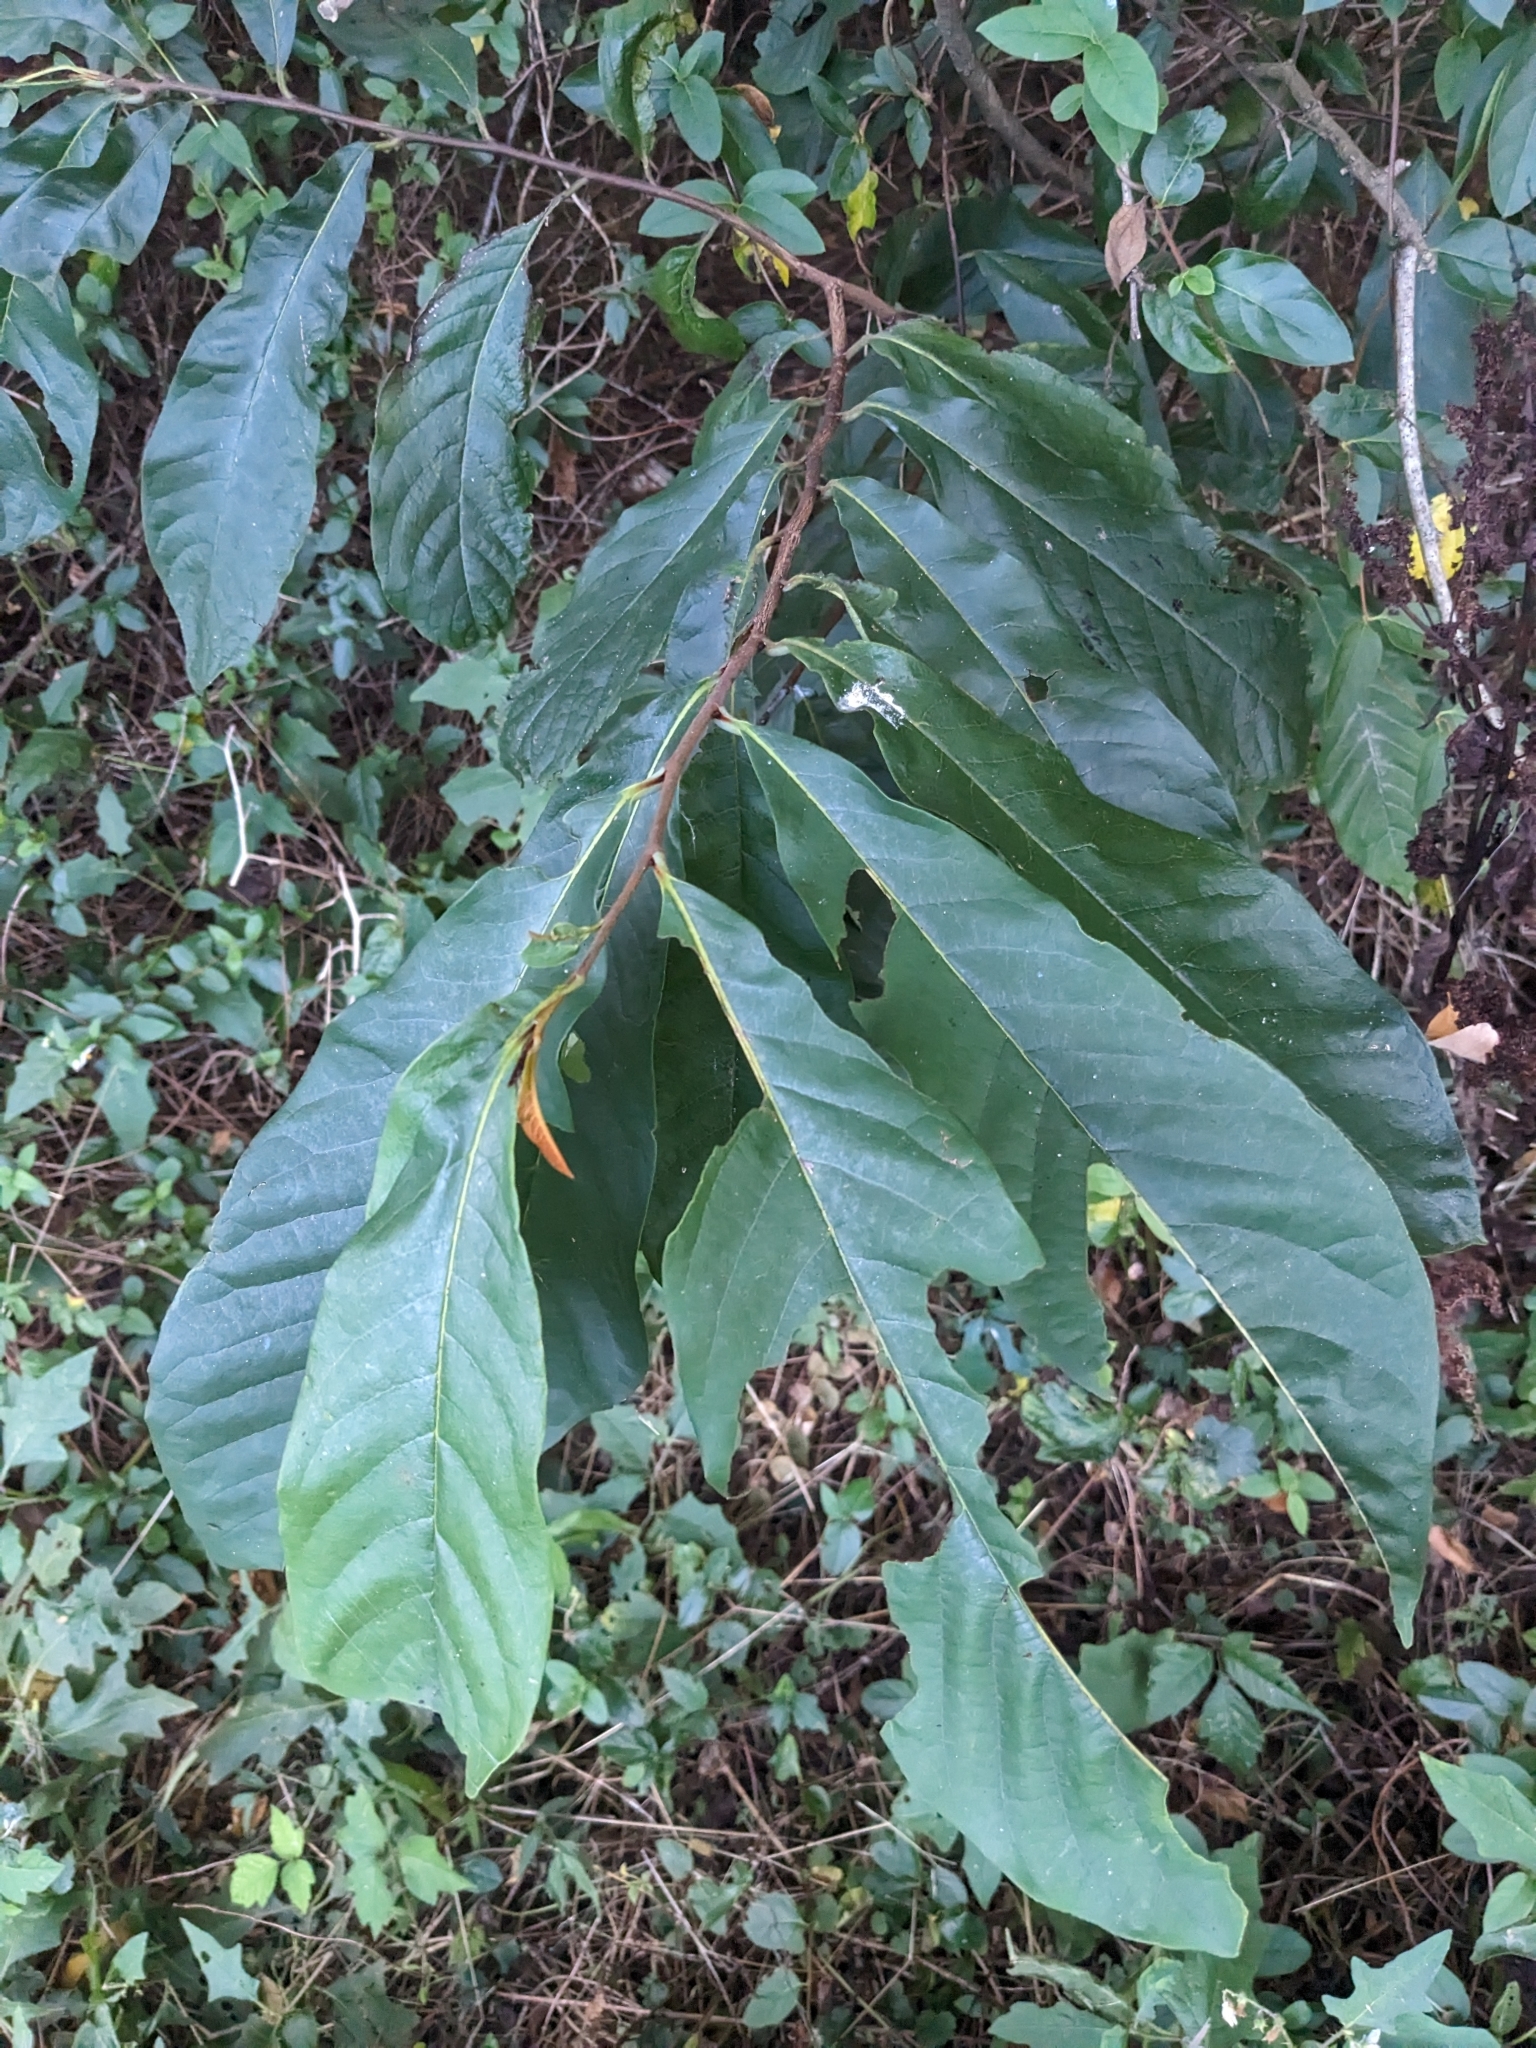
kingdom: Plantae
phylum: Tracheophyta
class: Magnoliopsida
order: Magnoliales
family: Annonaceae
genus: Asimina
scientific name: Asimina triloba
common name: Dog-banana
